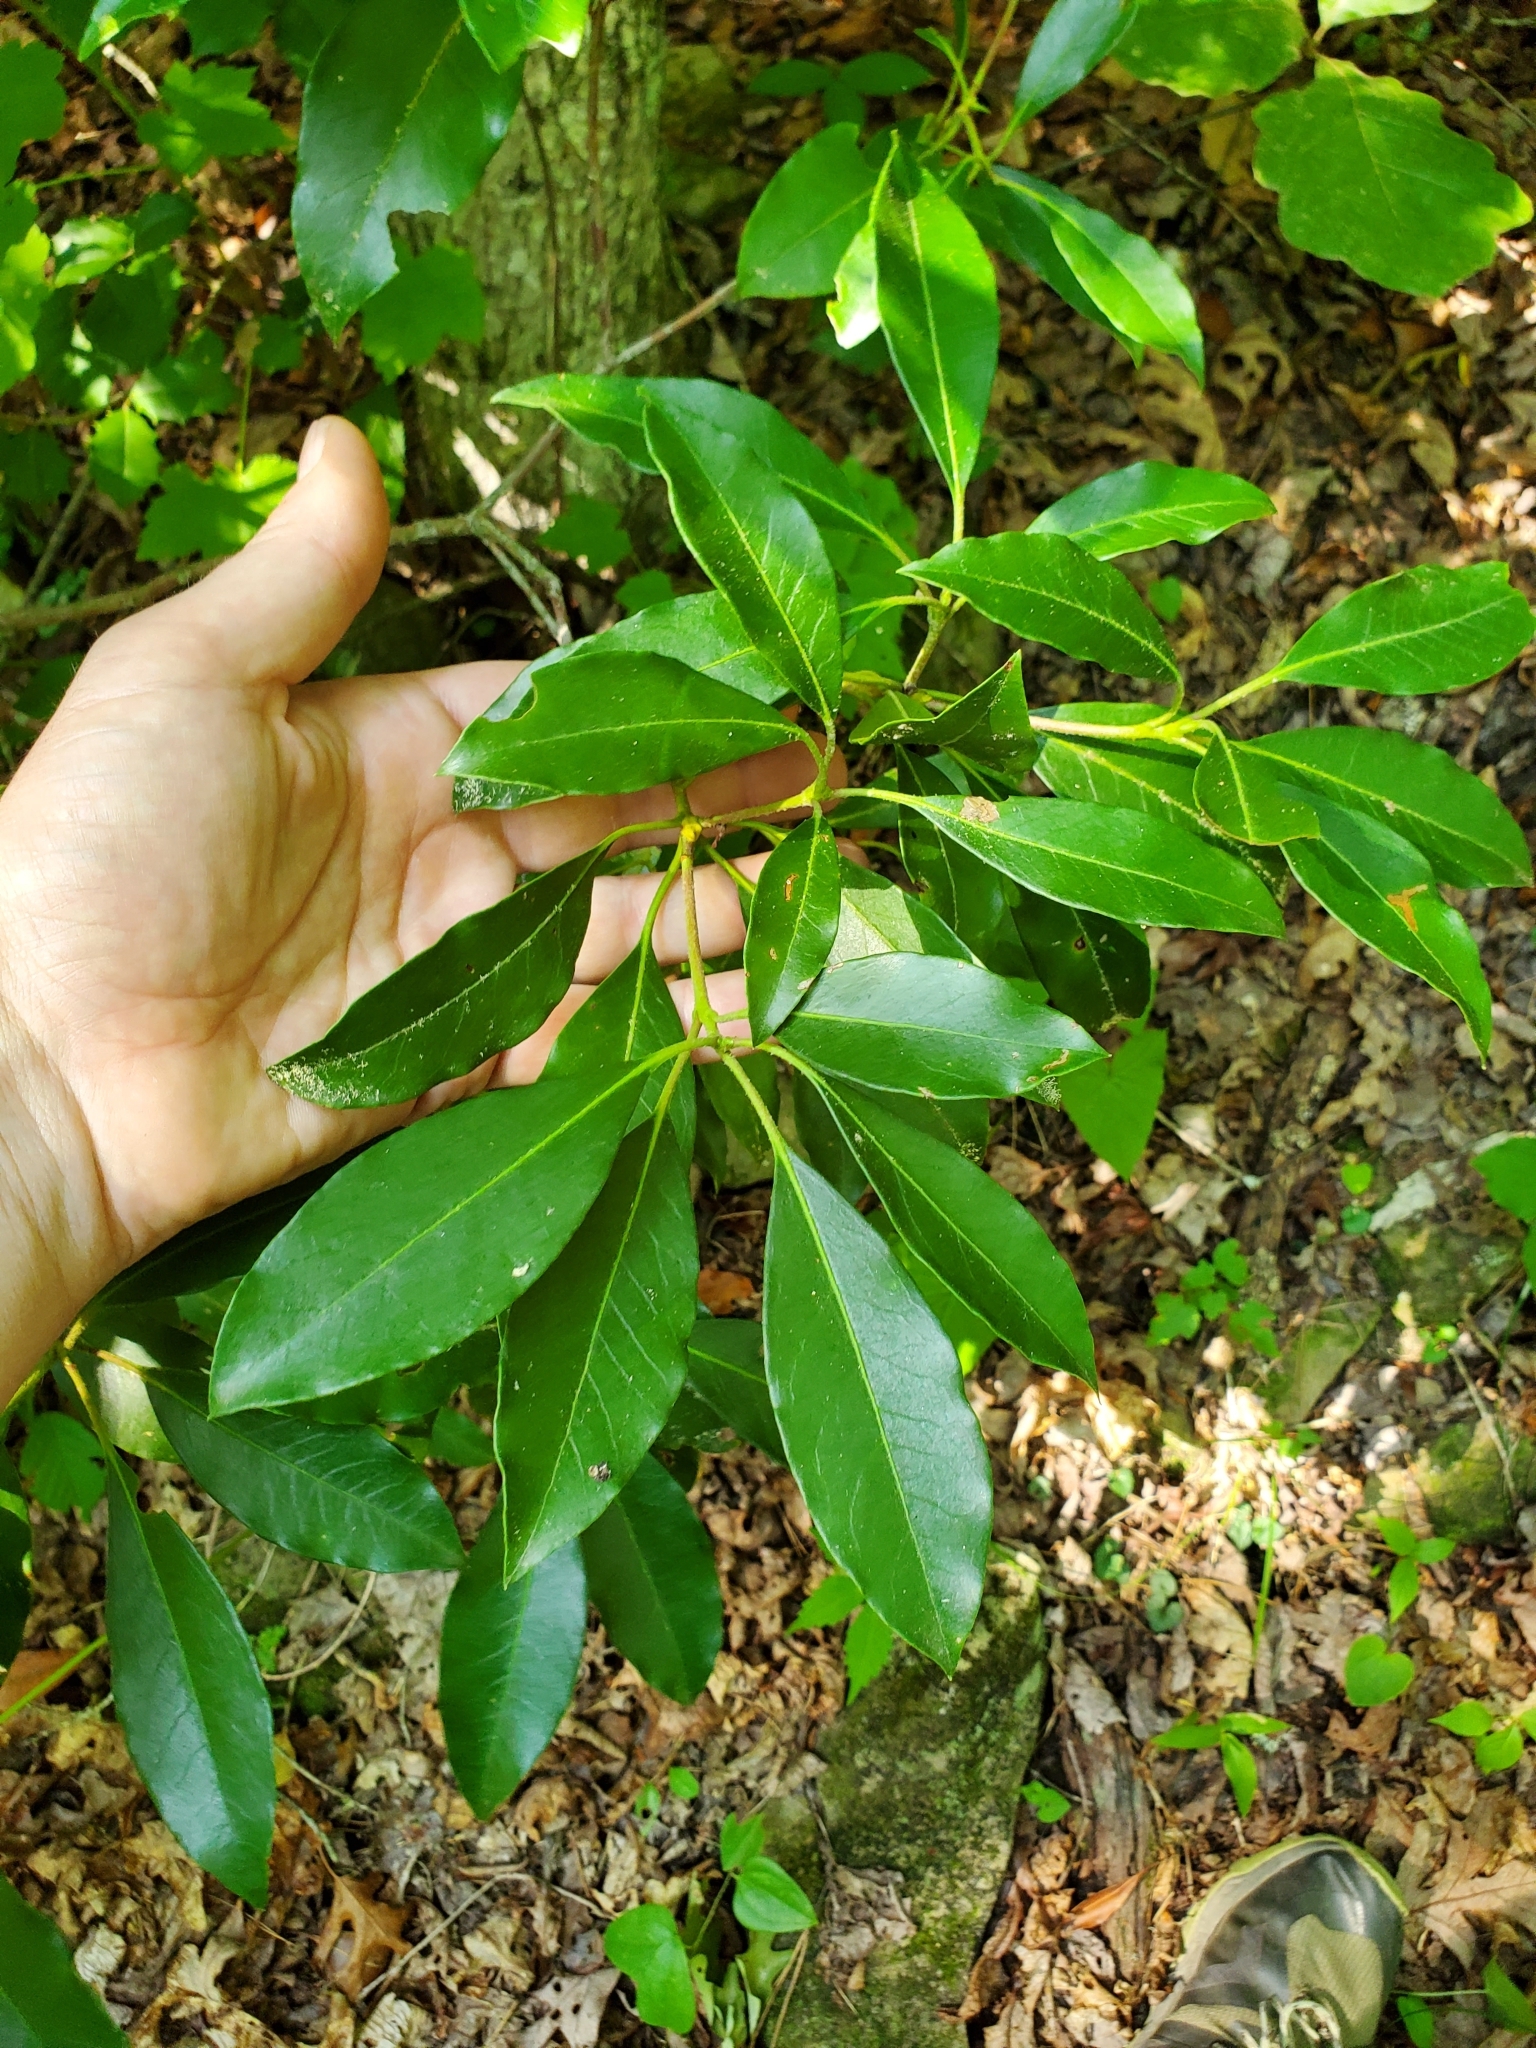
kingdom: Plantae
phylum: Tracheophyta
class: Magnoliopsida
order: Ericales
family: Ericaceae
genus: Kalmia
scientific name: Kalmia latifolia
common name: Mountain-laurel
